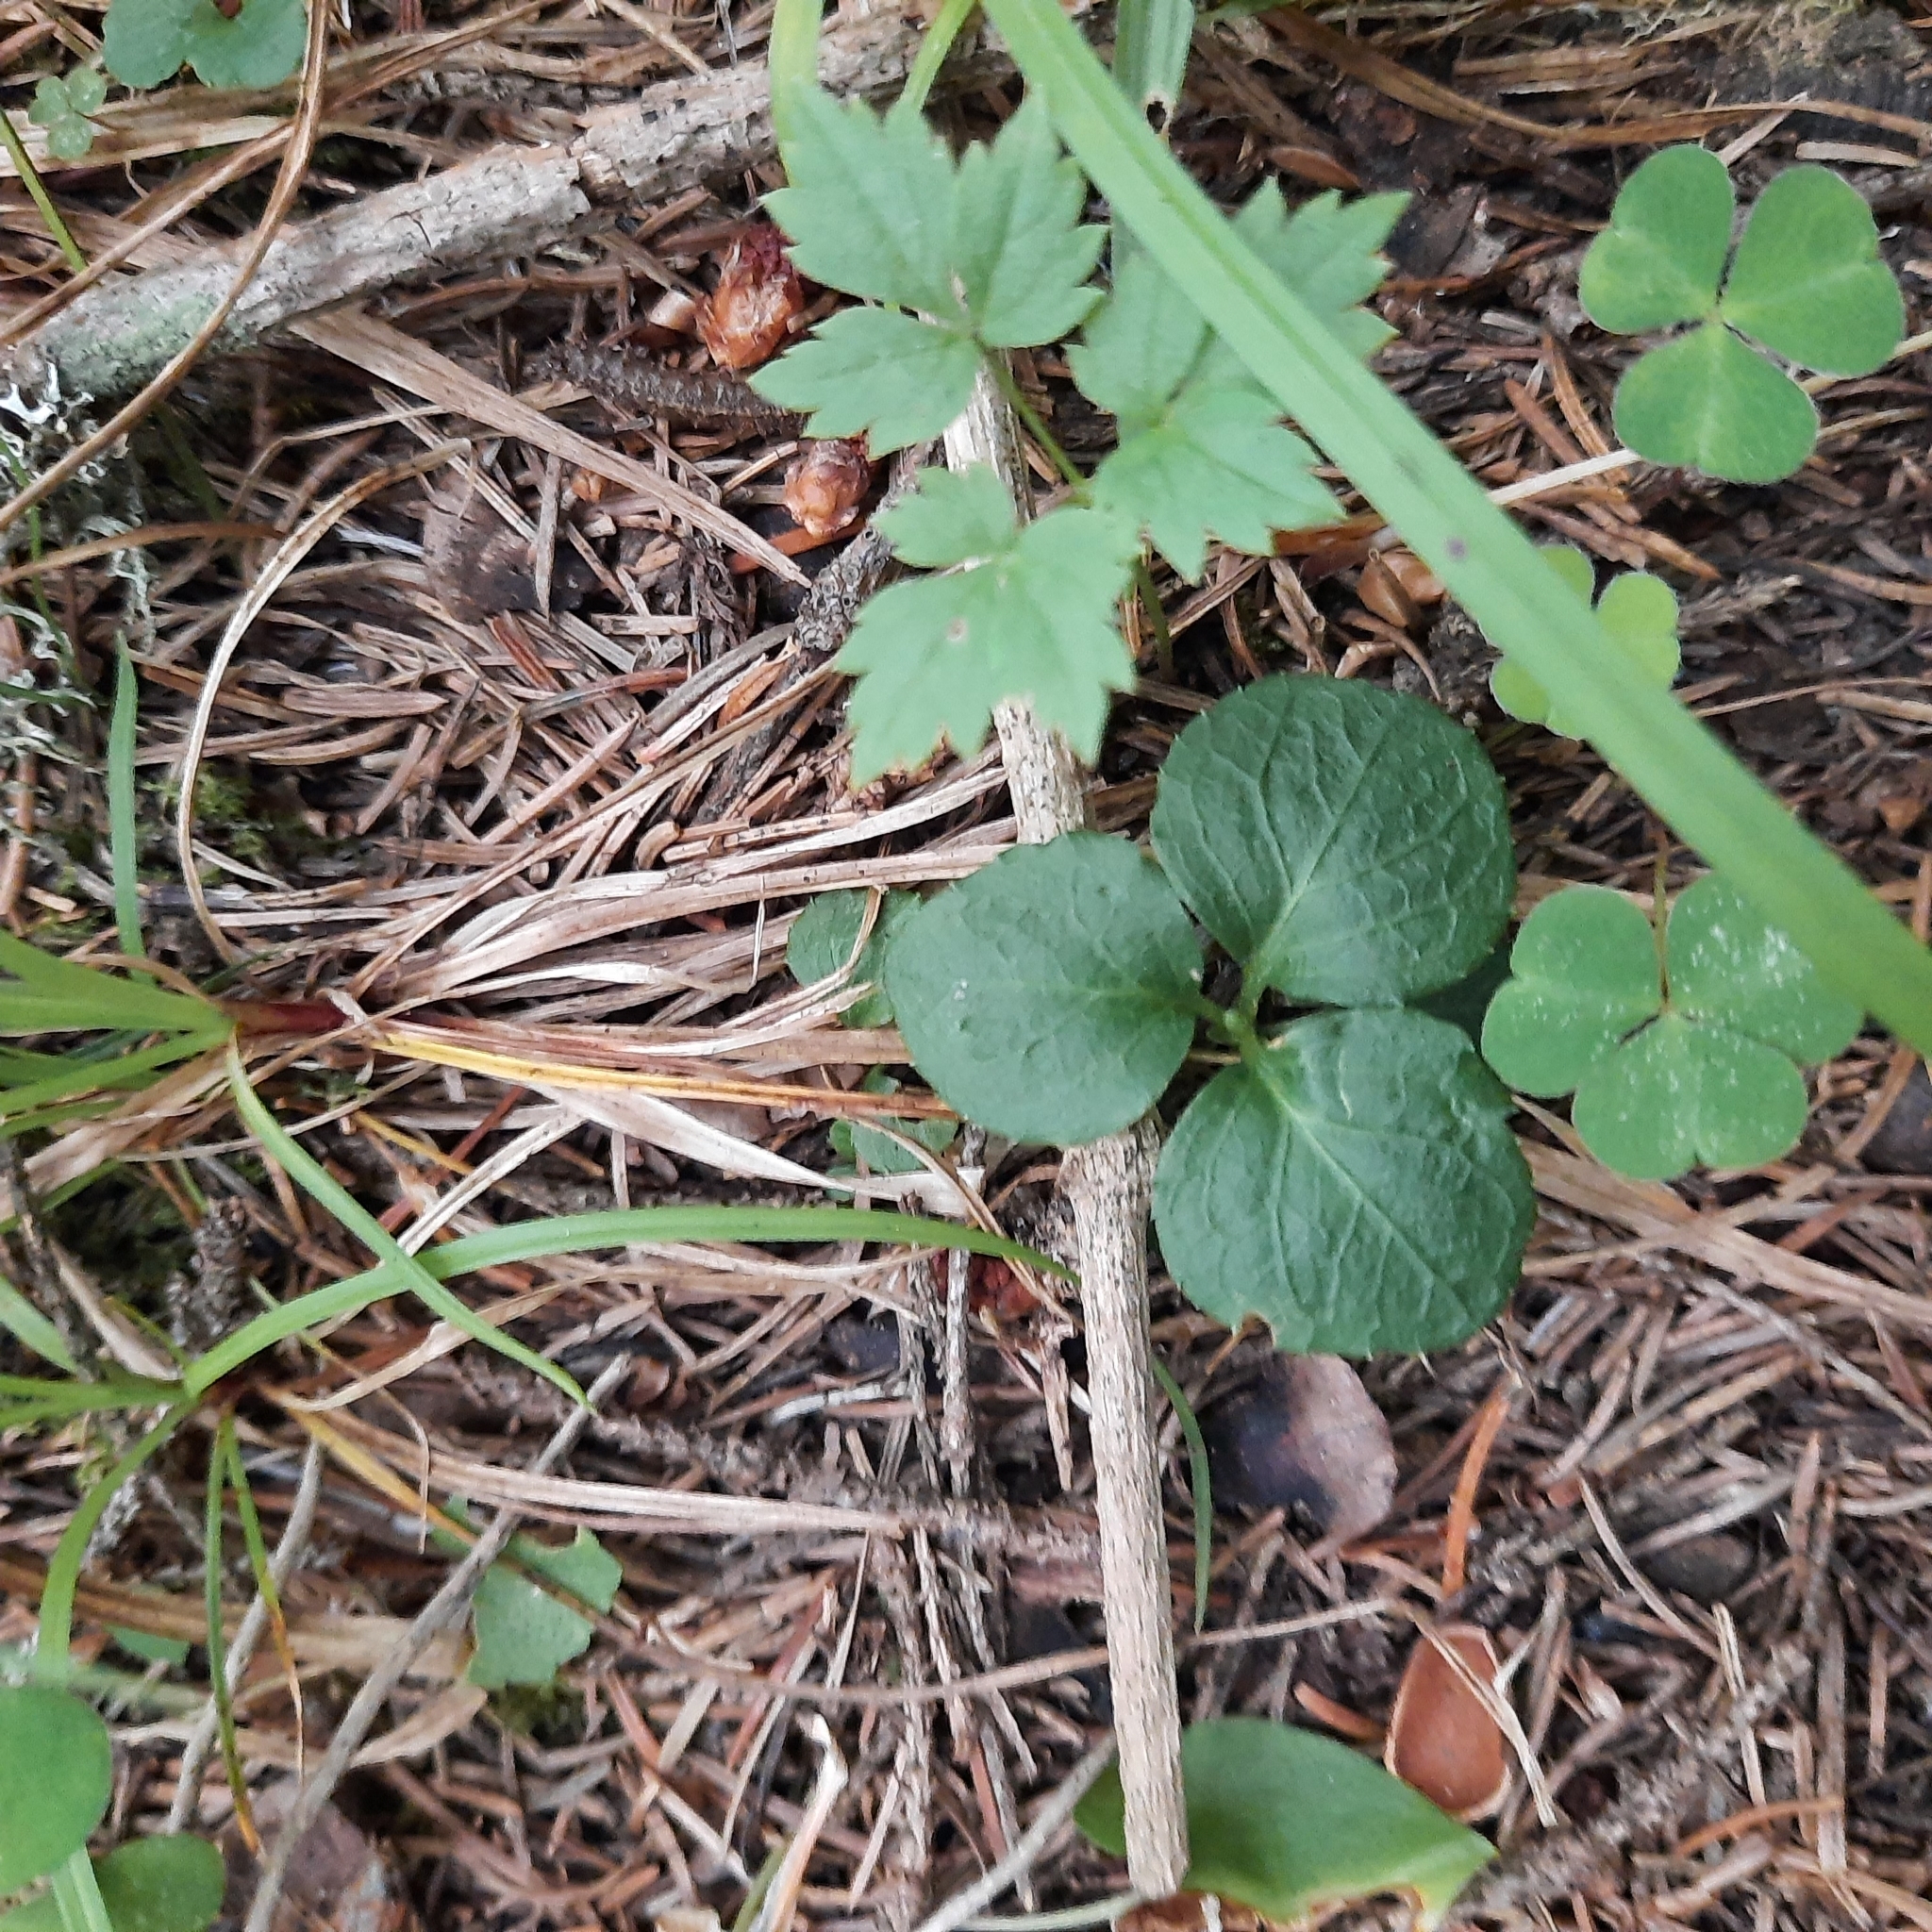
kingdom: Plantae
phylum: Tracheophyta
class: Magnoliopsida
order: Ericales
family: Ericaceae
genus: Moneses
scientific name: Moneses uniflora
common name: One-flowered wintergreen
